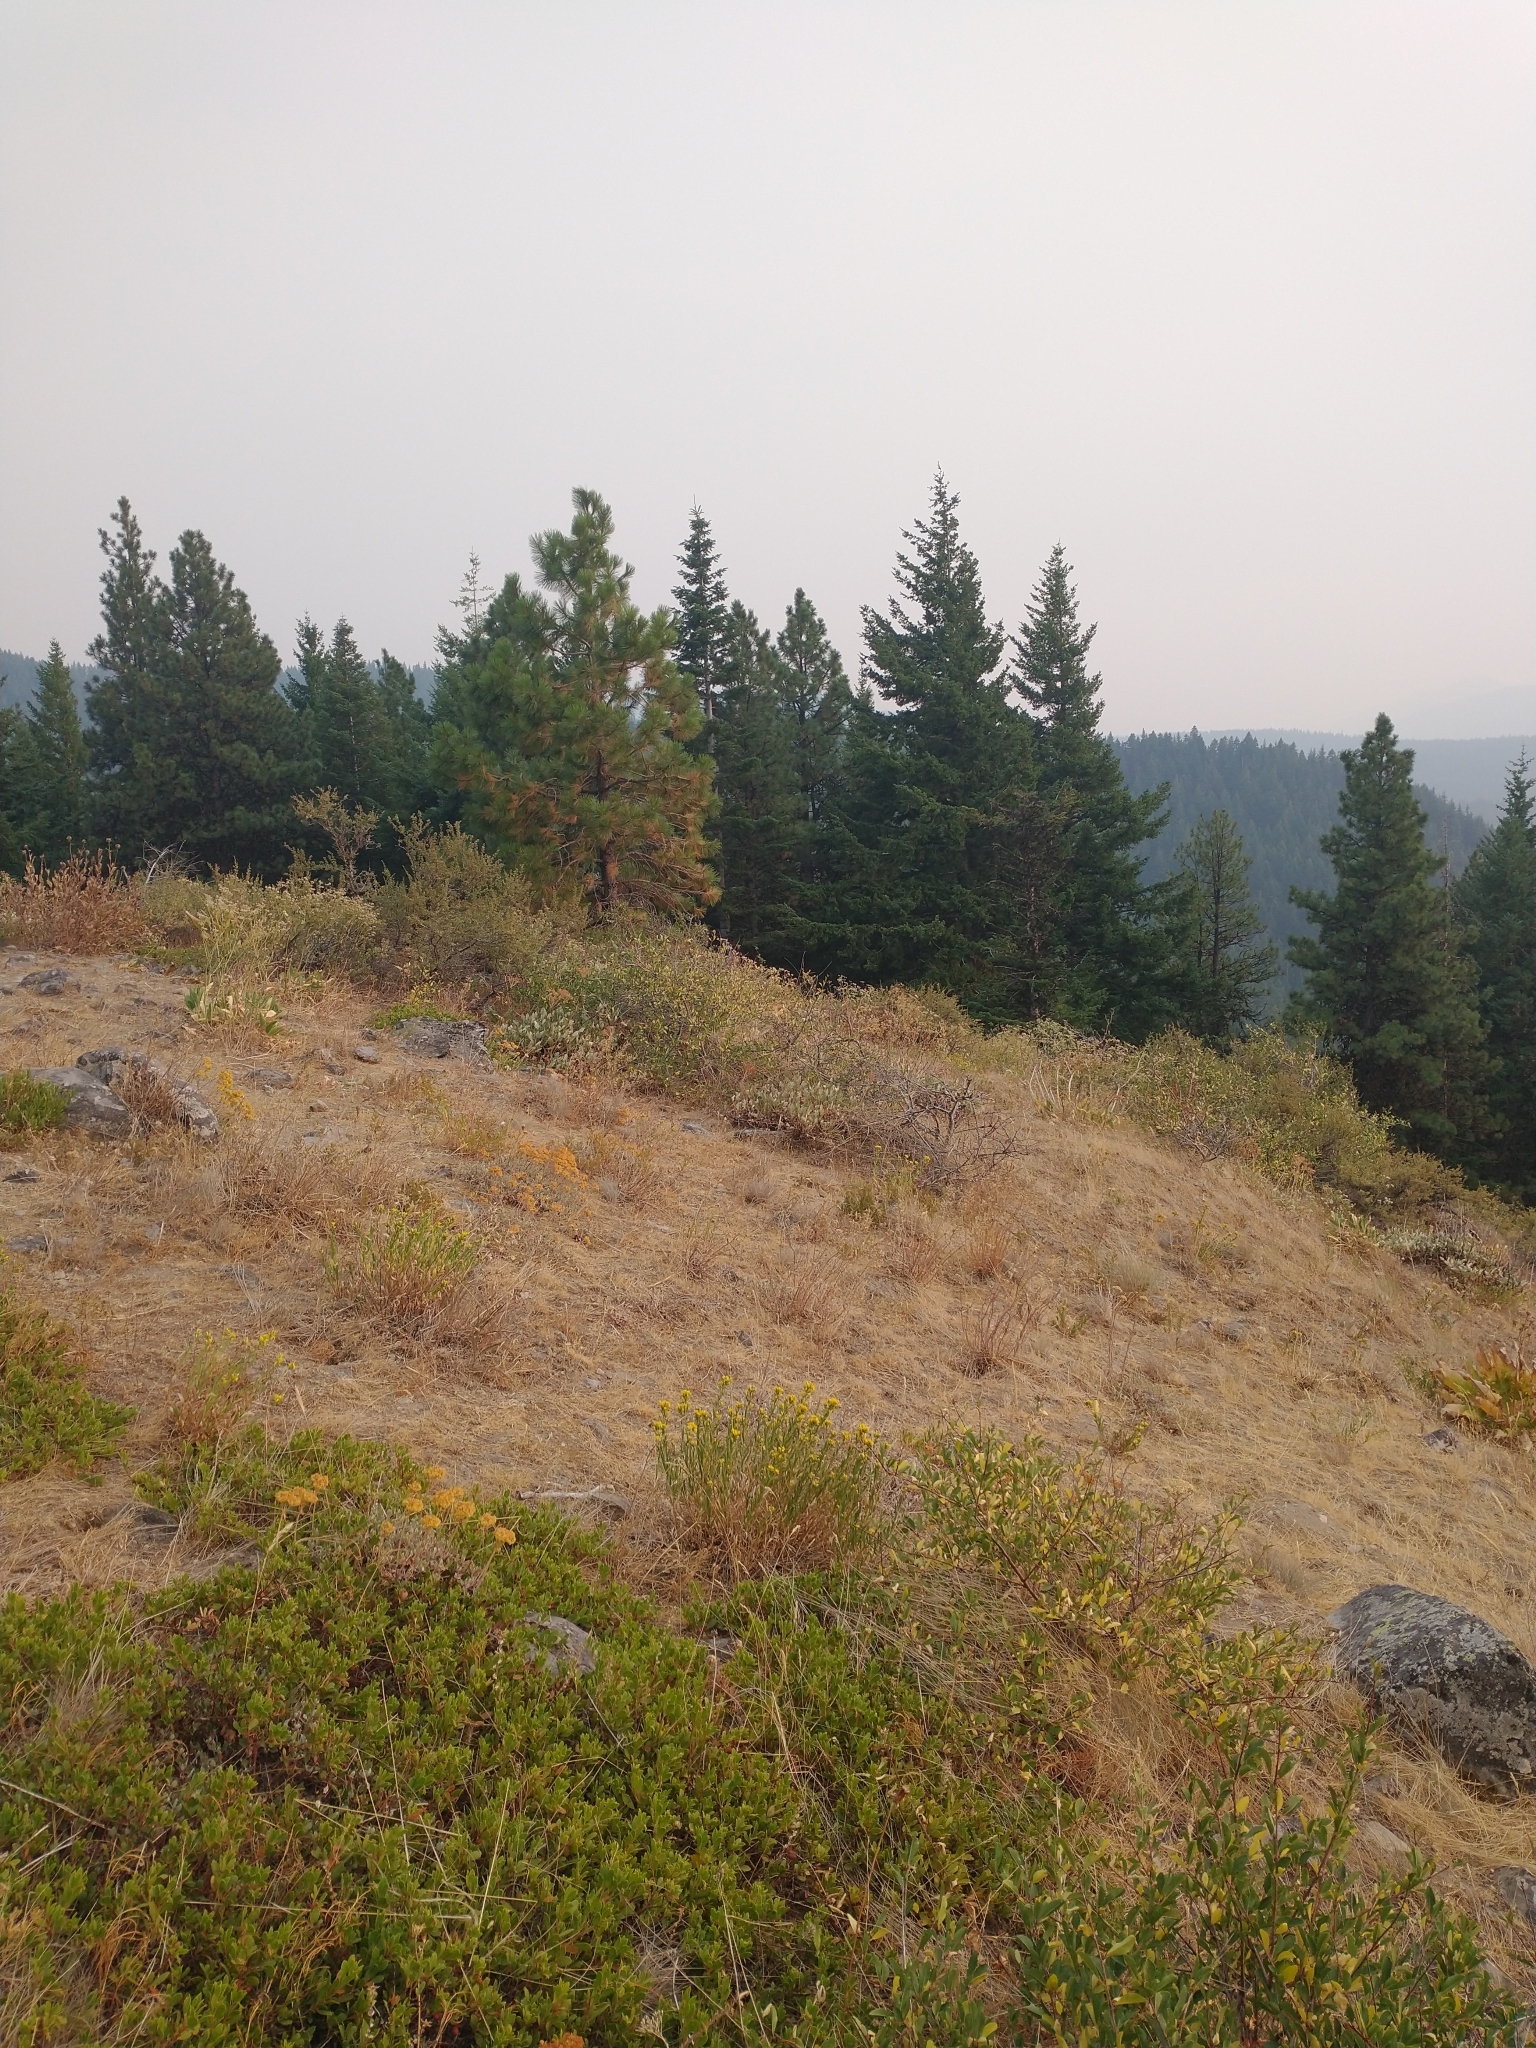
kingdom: Plantae
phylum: Tracheophyta
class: Pinopsida
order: Pinales
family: Pinaceae
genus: Pinus
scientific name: Pinus ponderosa
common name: Western yellow-pine
